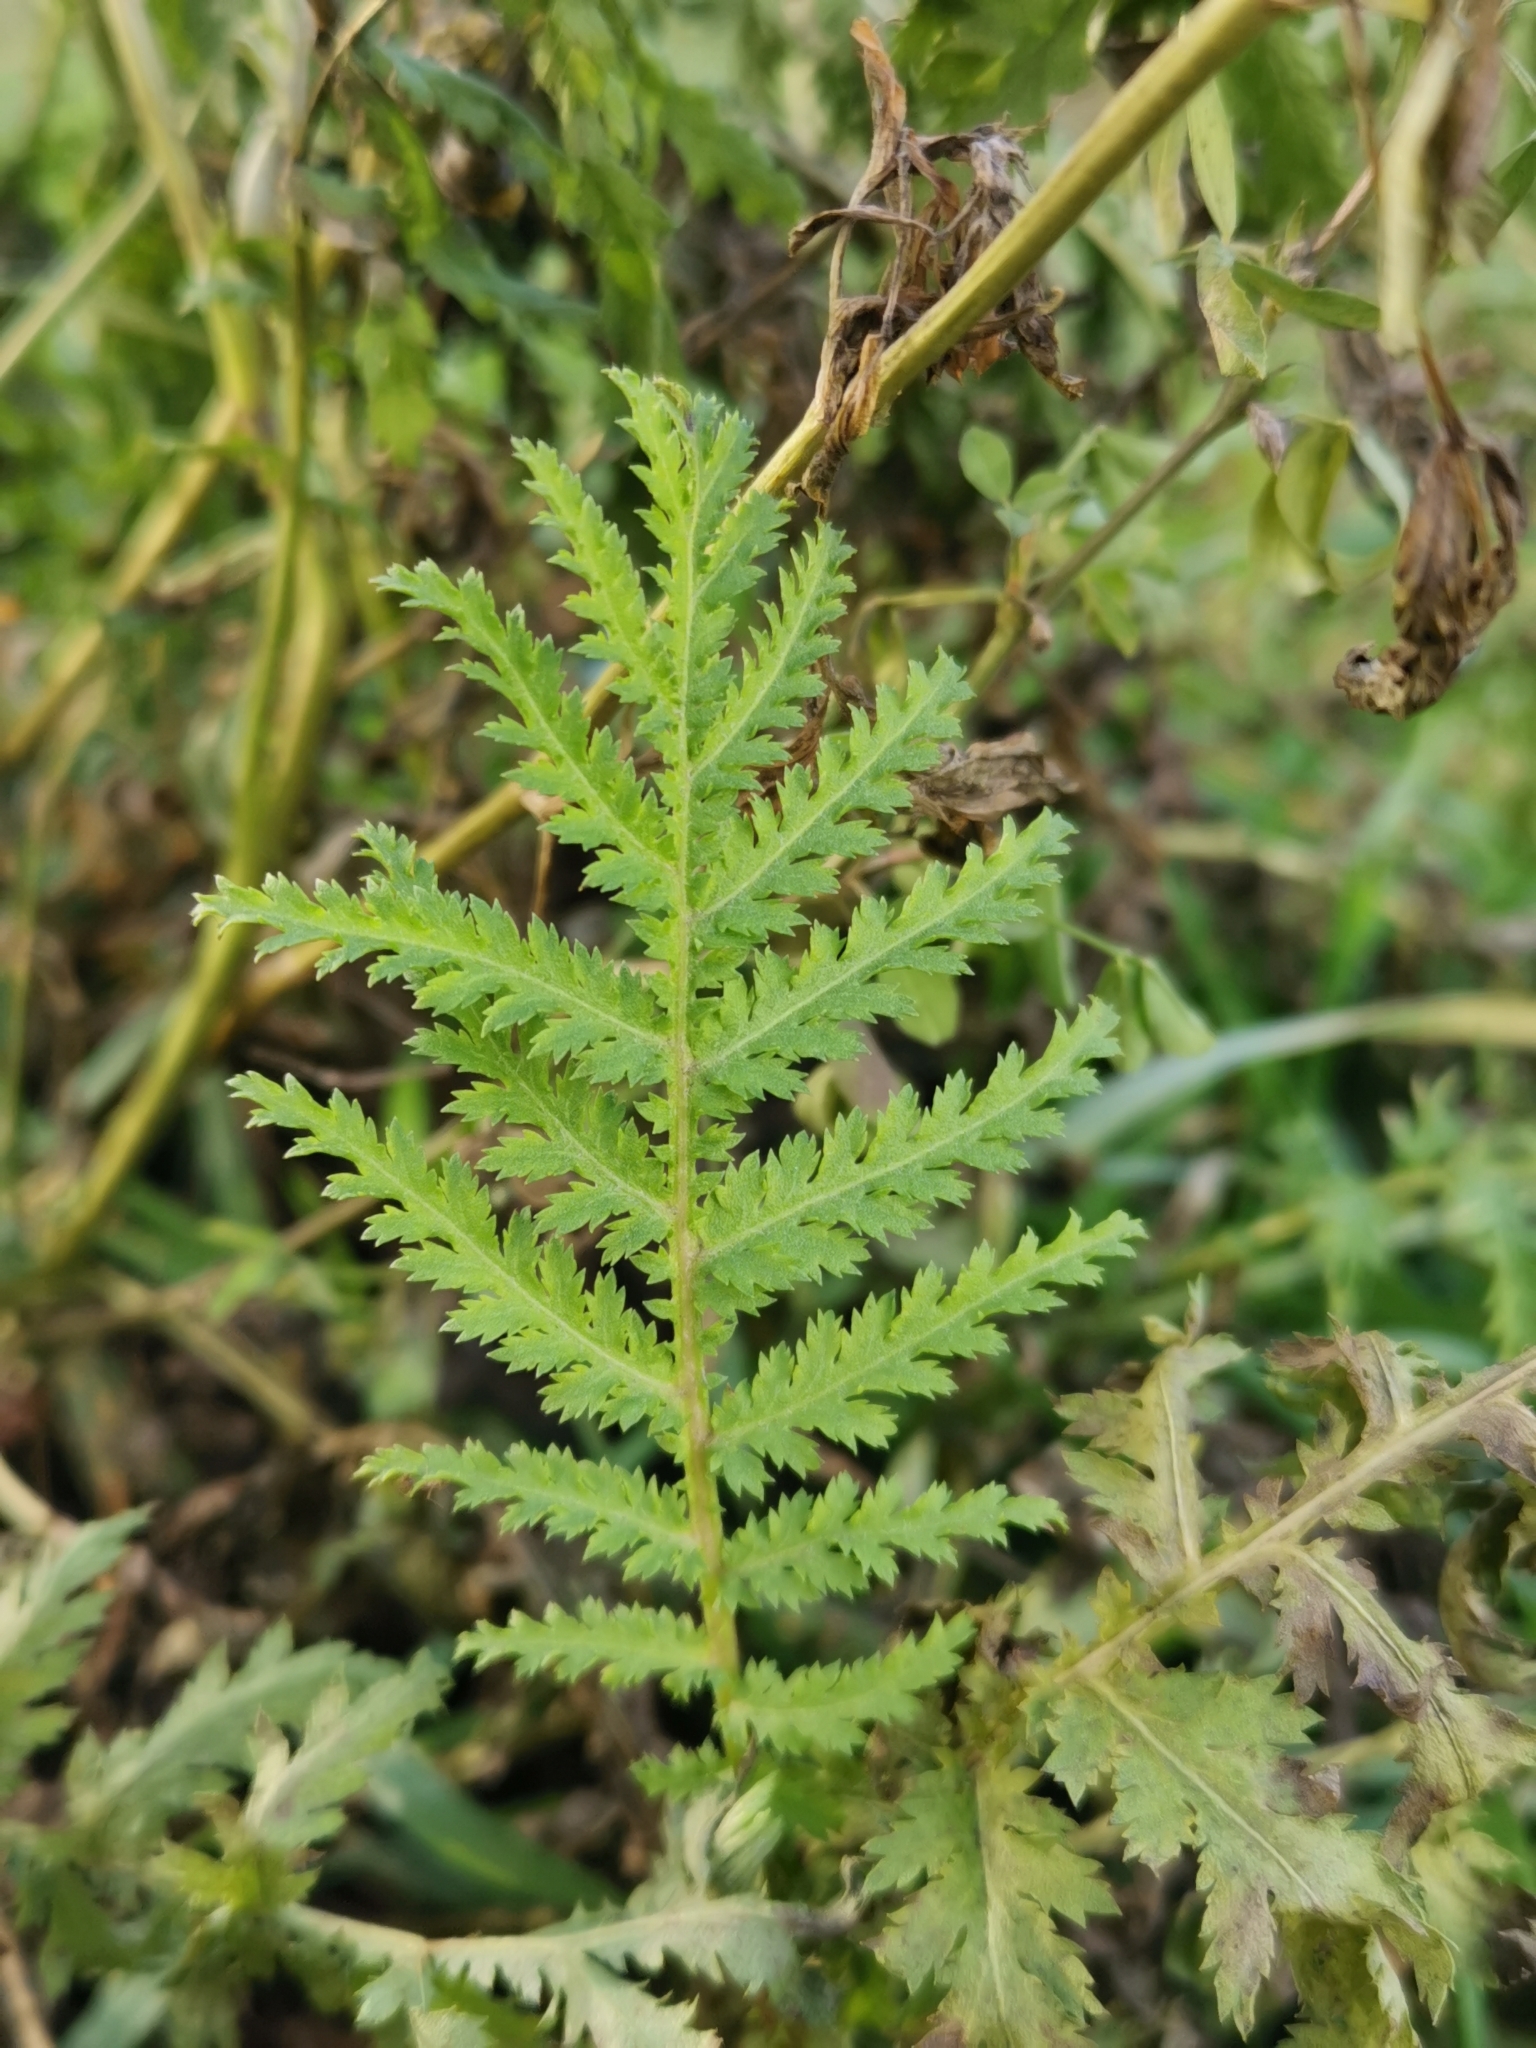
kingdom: Plantae
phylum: Tracheophyta
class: Magnoliopsida
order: Asterales
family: Asteraceae
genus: Tanacetum
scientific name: Tanacetum vulgare
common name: Common tansy
